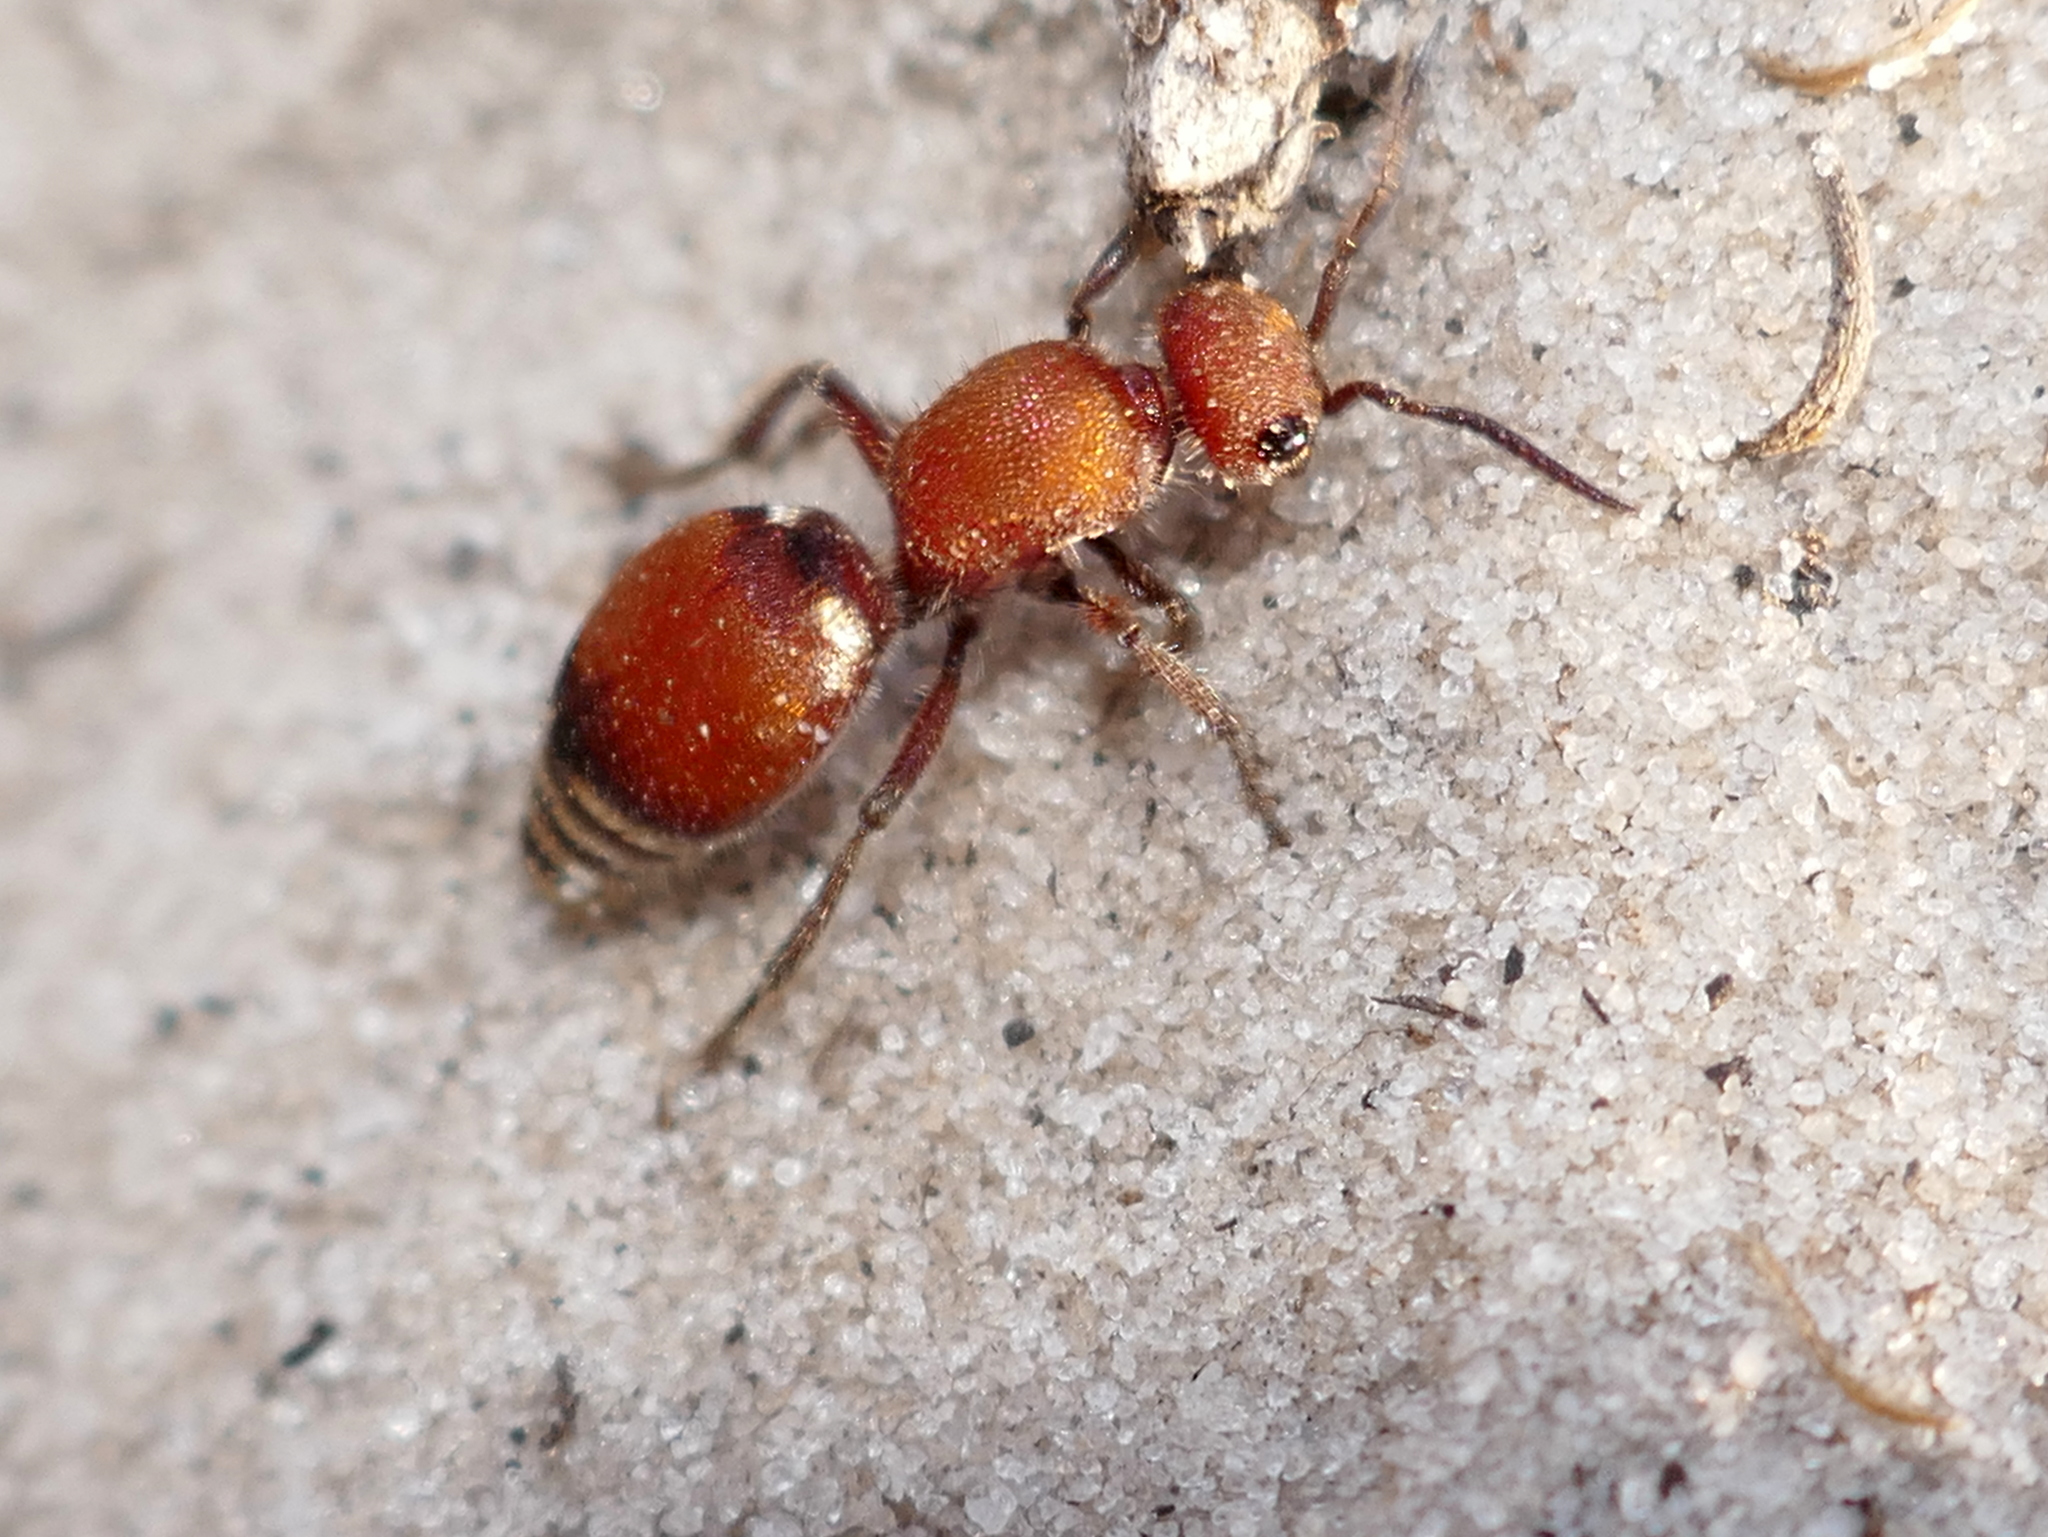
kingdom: Animalia
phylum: Arthropoda
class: Insecta
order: Hymenoptera
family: Mutillidae
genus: Pseudomethoca
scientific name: Pseudomethoca sanbornii
